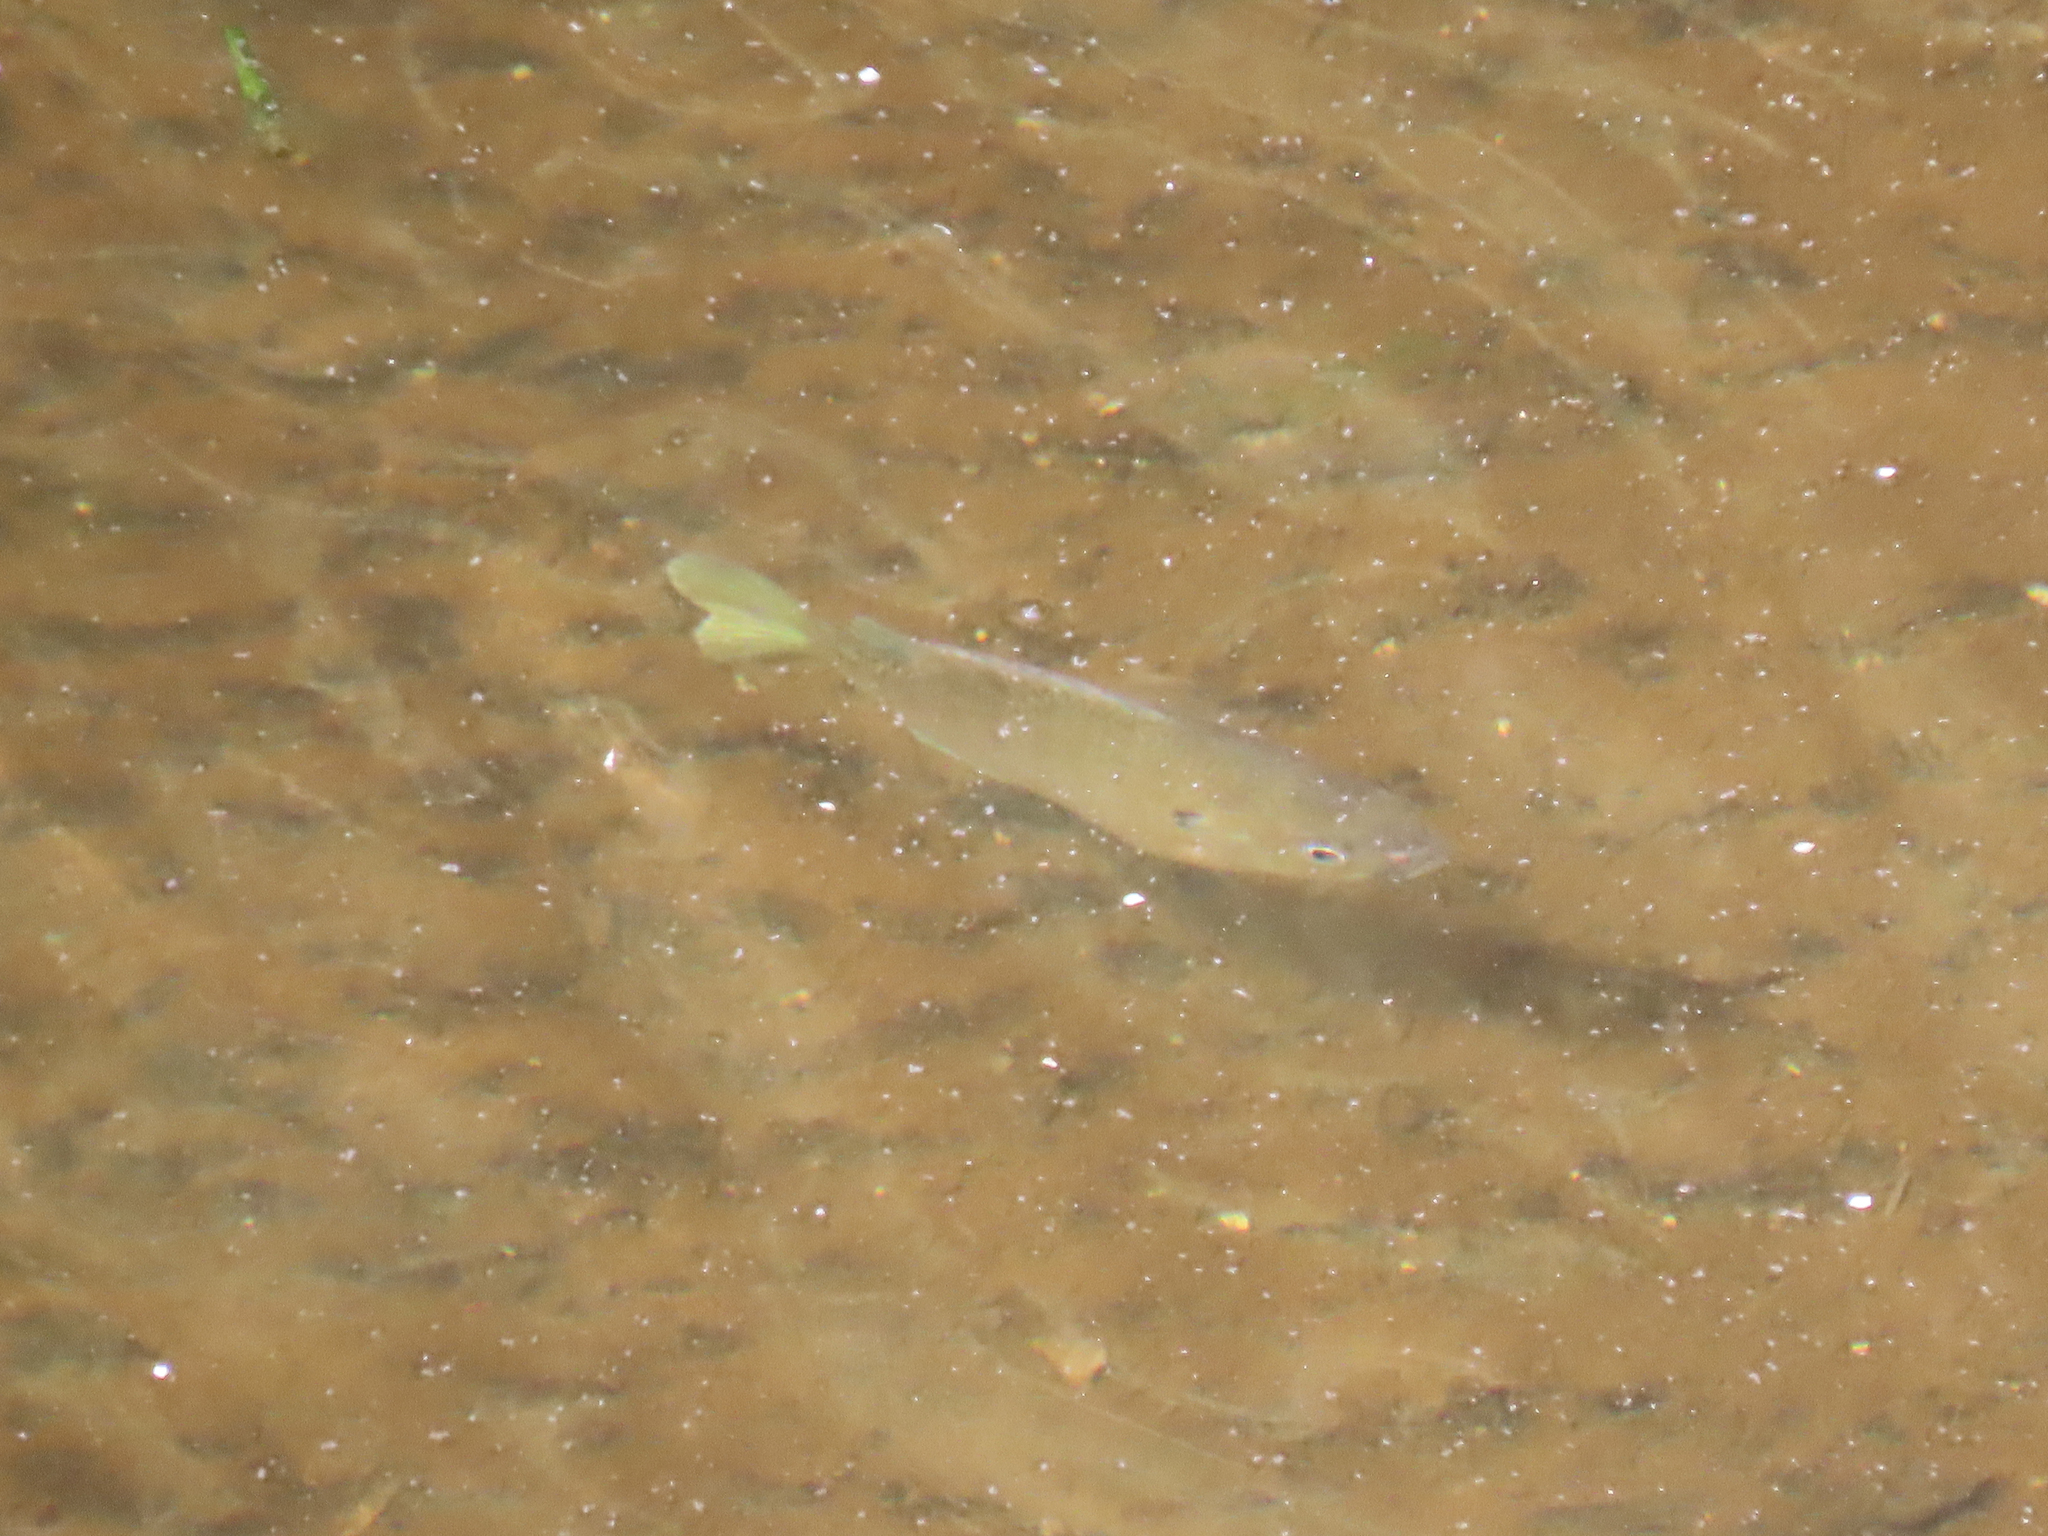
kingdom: Animalia
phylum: Chordata
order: Perciformes
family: Centrarchidae
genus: Lepomis
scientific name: Lepomis macrochirus
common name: Bluegill
